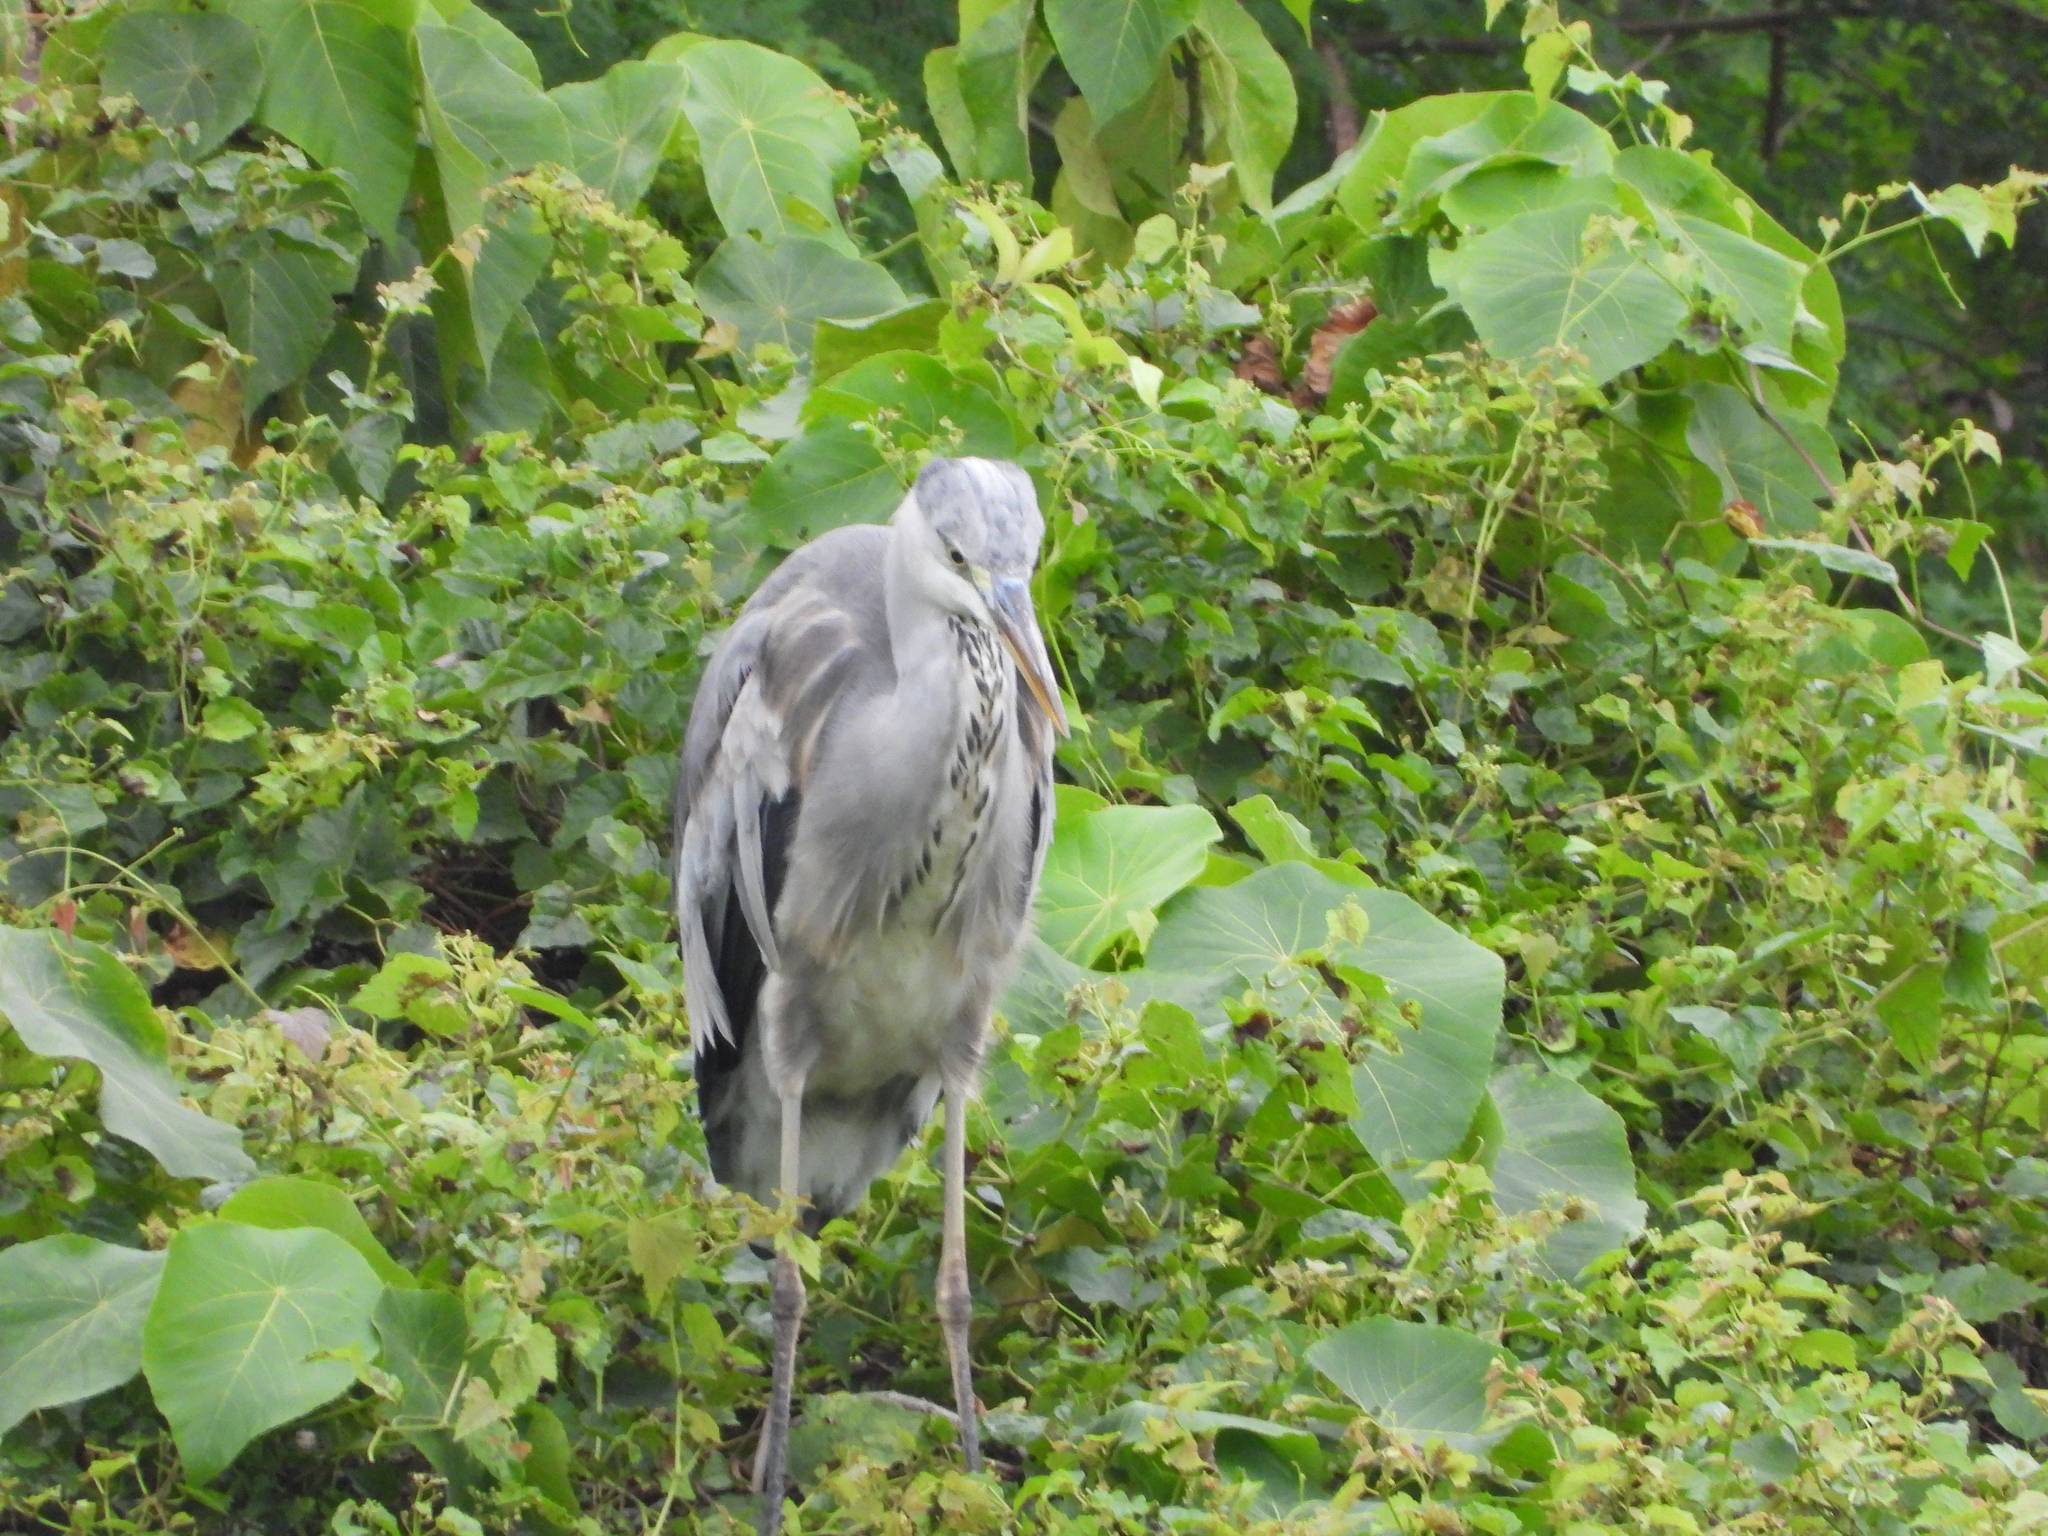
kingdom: Animalia
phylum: Chordata
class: Aves
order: Pelecaniformes
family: Ardeidae
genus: Ardea
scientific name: Ardea cinerea
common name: Grey heron
